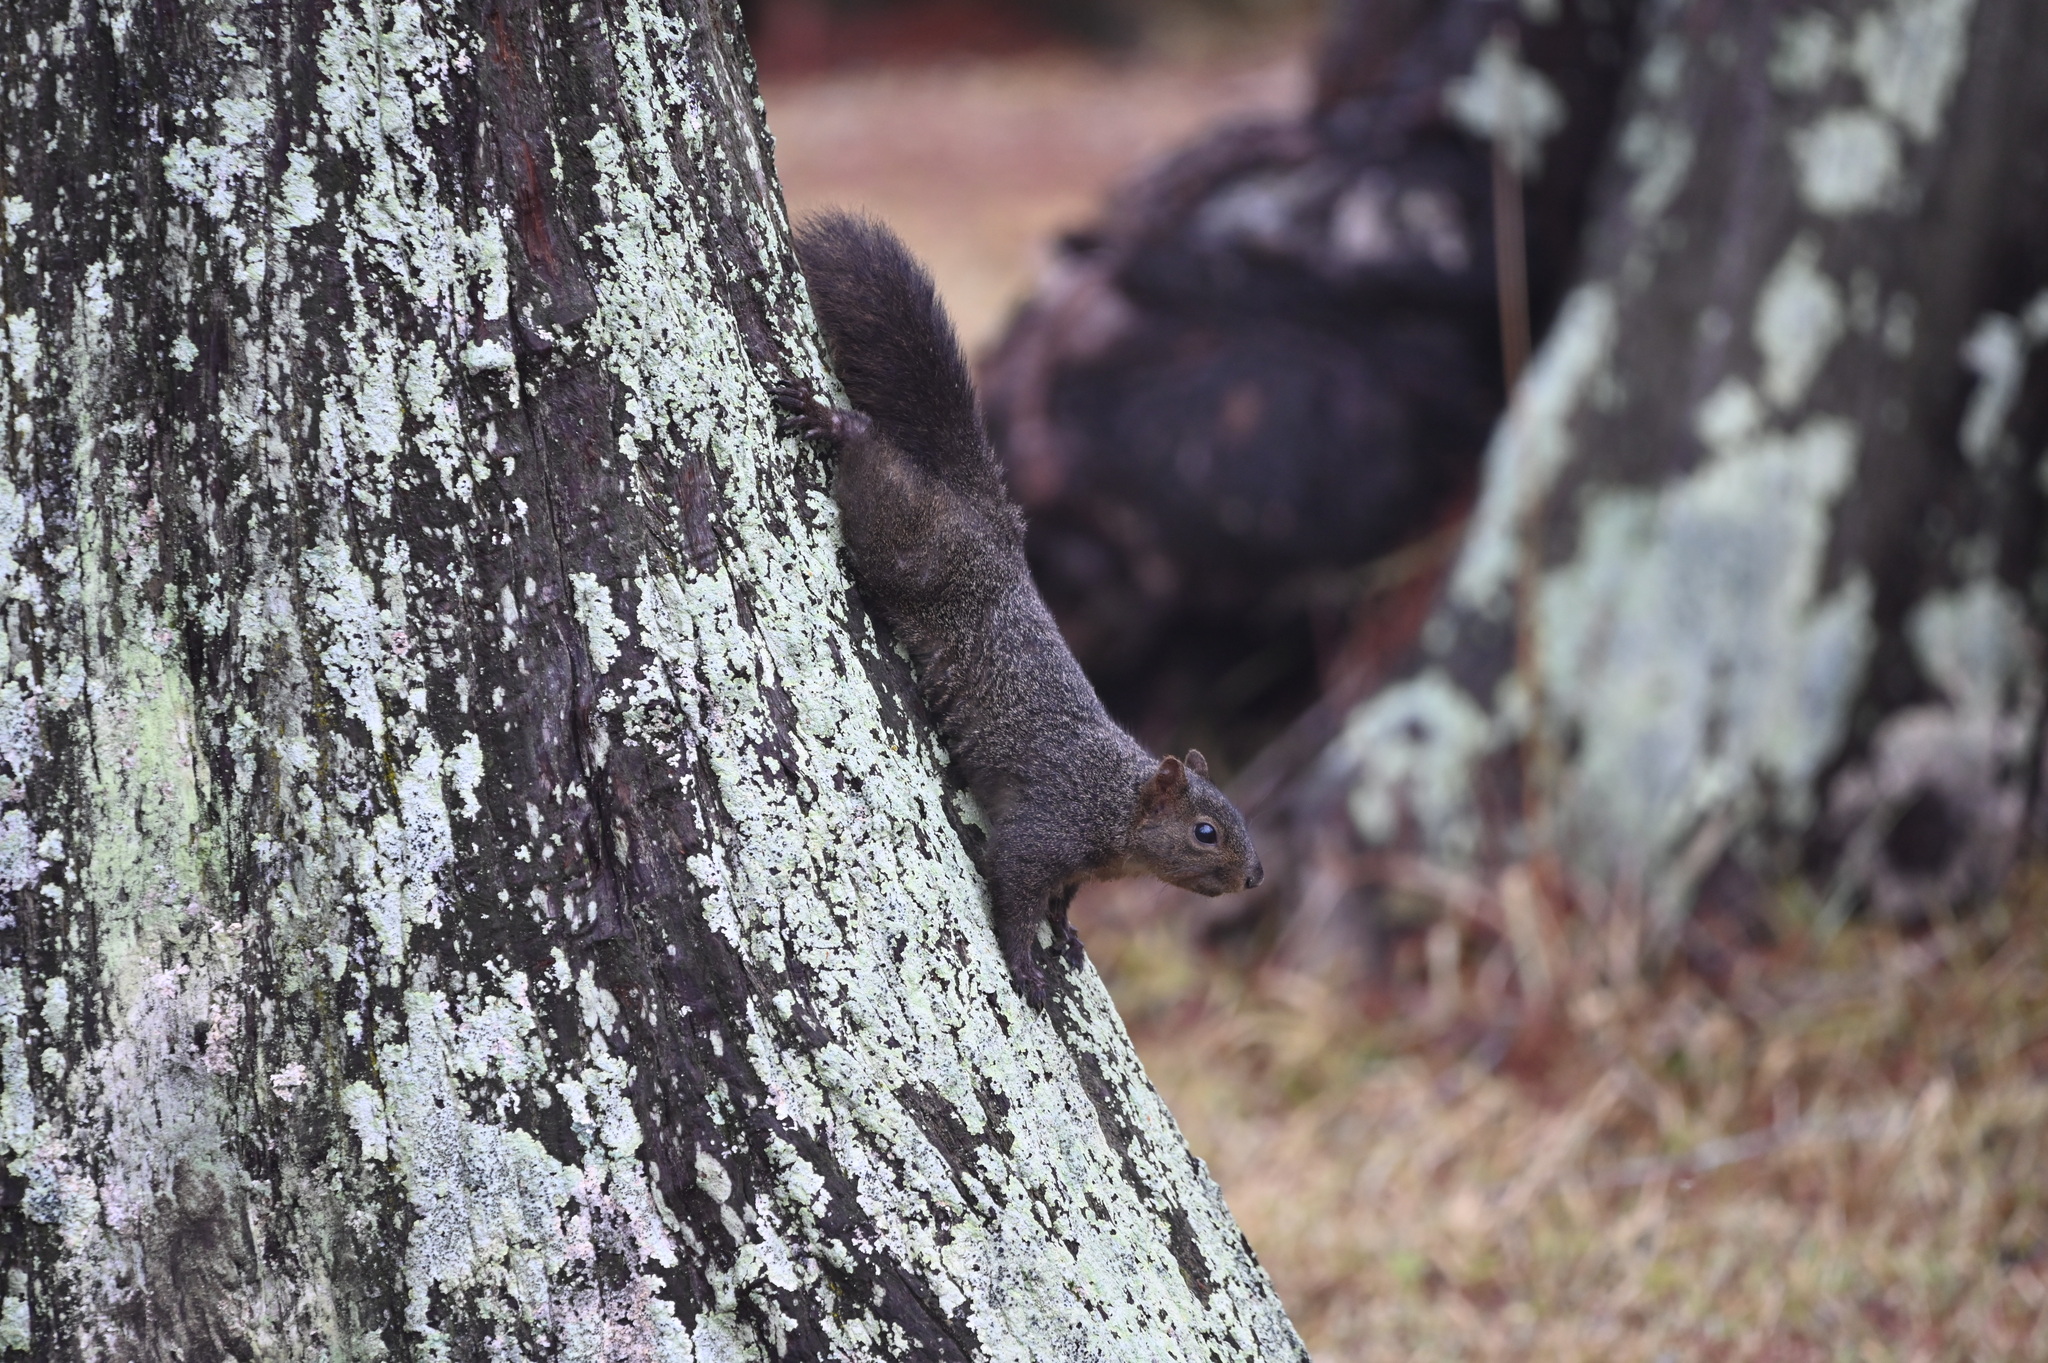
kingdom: Animalia
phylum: Chordata
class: Mammalia
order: Rodentia
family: Sciuridae
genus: Sciurus
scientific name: Sciurus niger
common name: Fox squirrel
